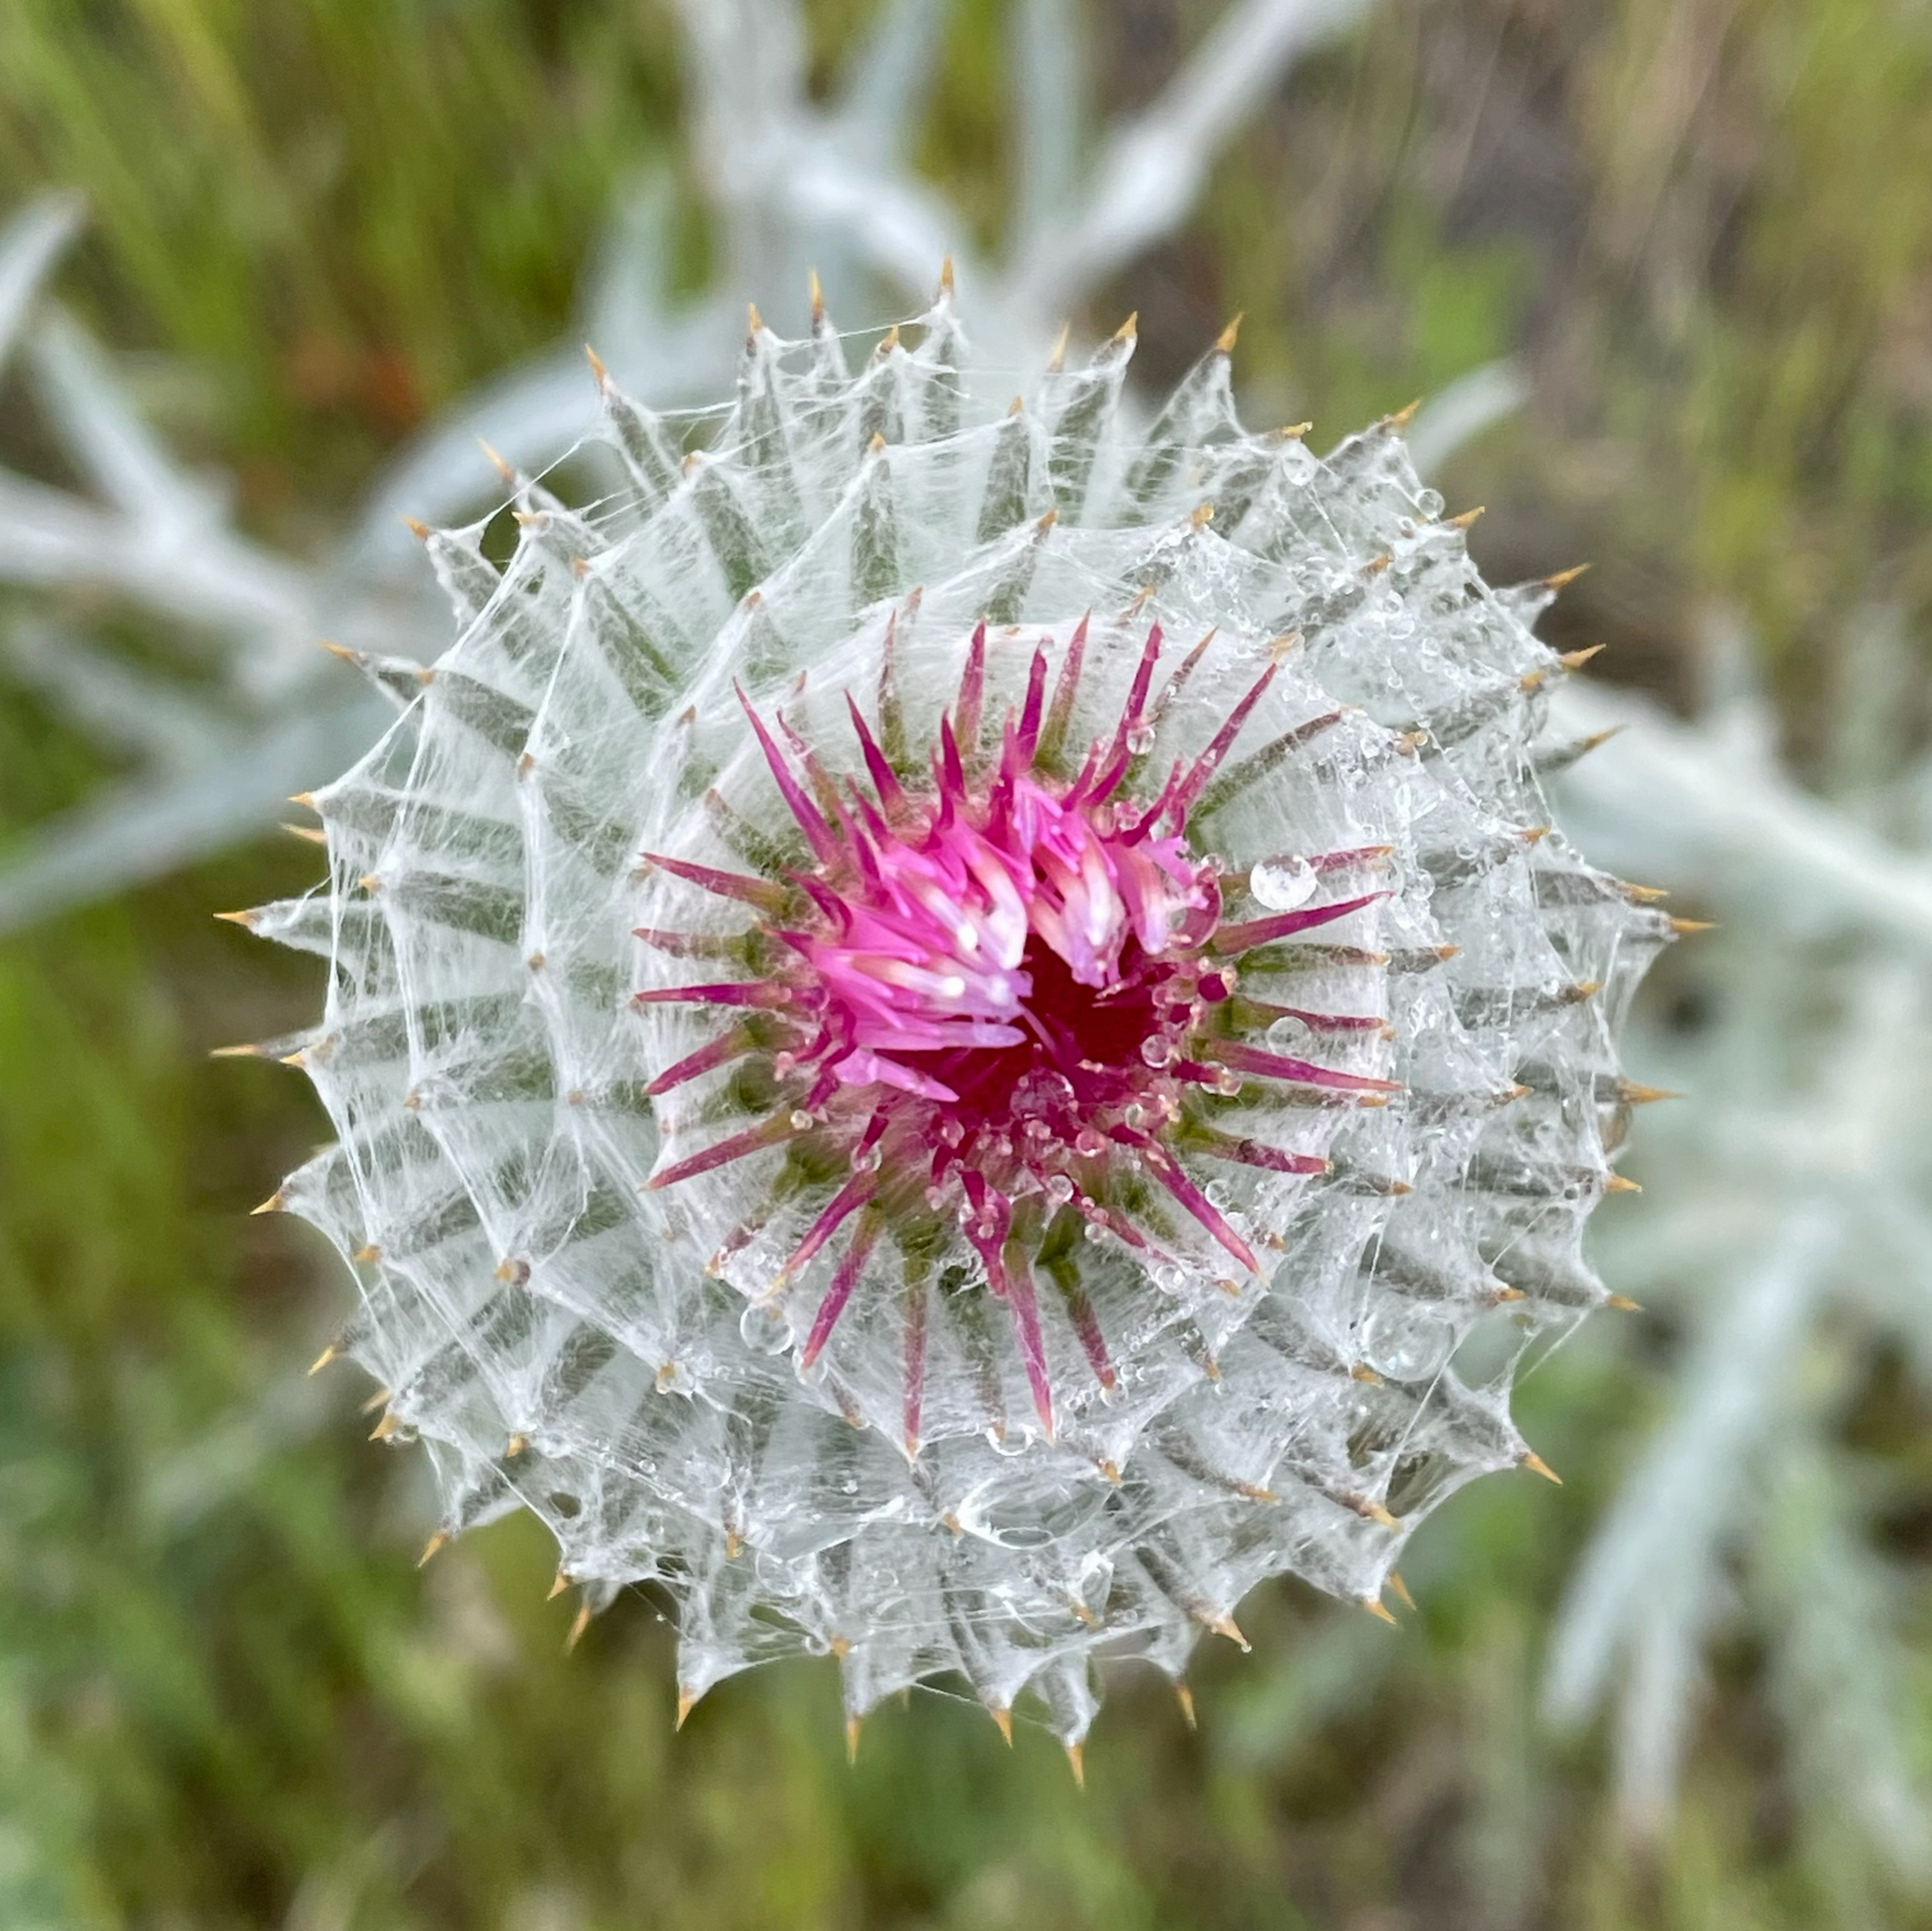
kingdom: Plantae
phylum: Tracheophyta
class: Magnoliopsida
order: Asterales
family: Asteraceae
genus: Cirsium
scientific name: Cirsium occidentale
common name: Western thistle
